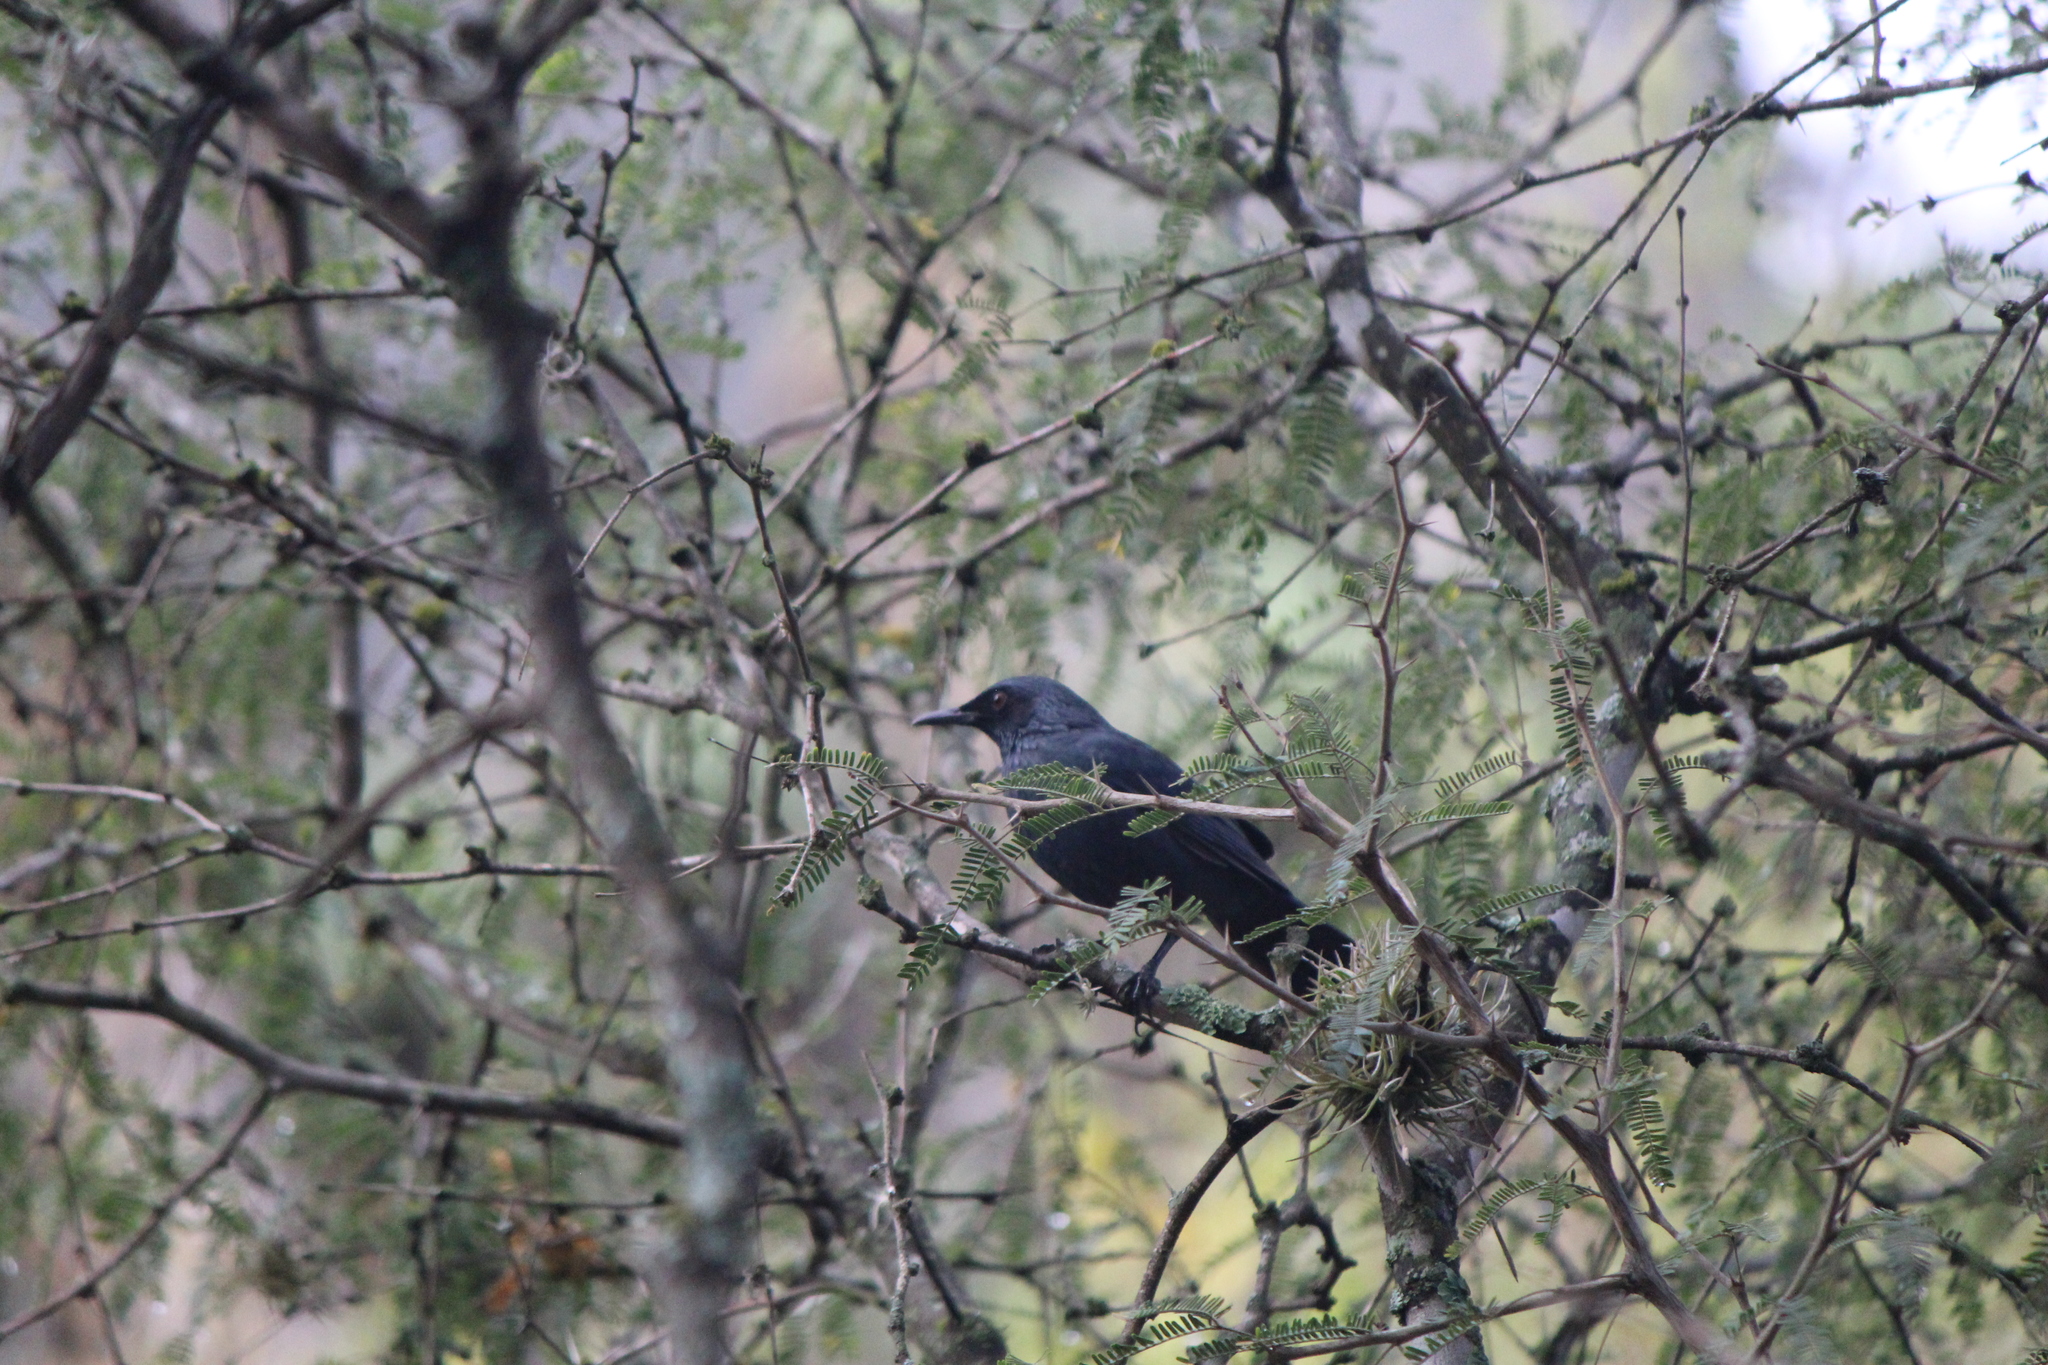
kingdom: Animalia
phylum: Chordata
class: Aves
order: Passeriformes
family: Mimidae
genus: Melanotis
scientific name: Melanotis caerulescens
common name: Blue mockingbird
